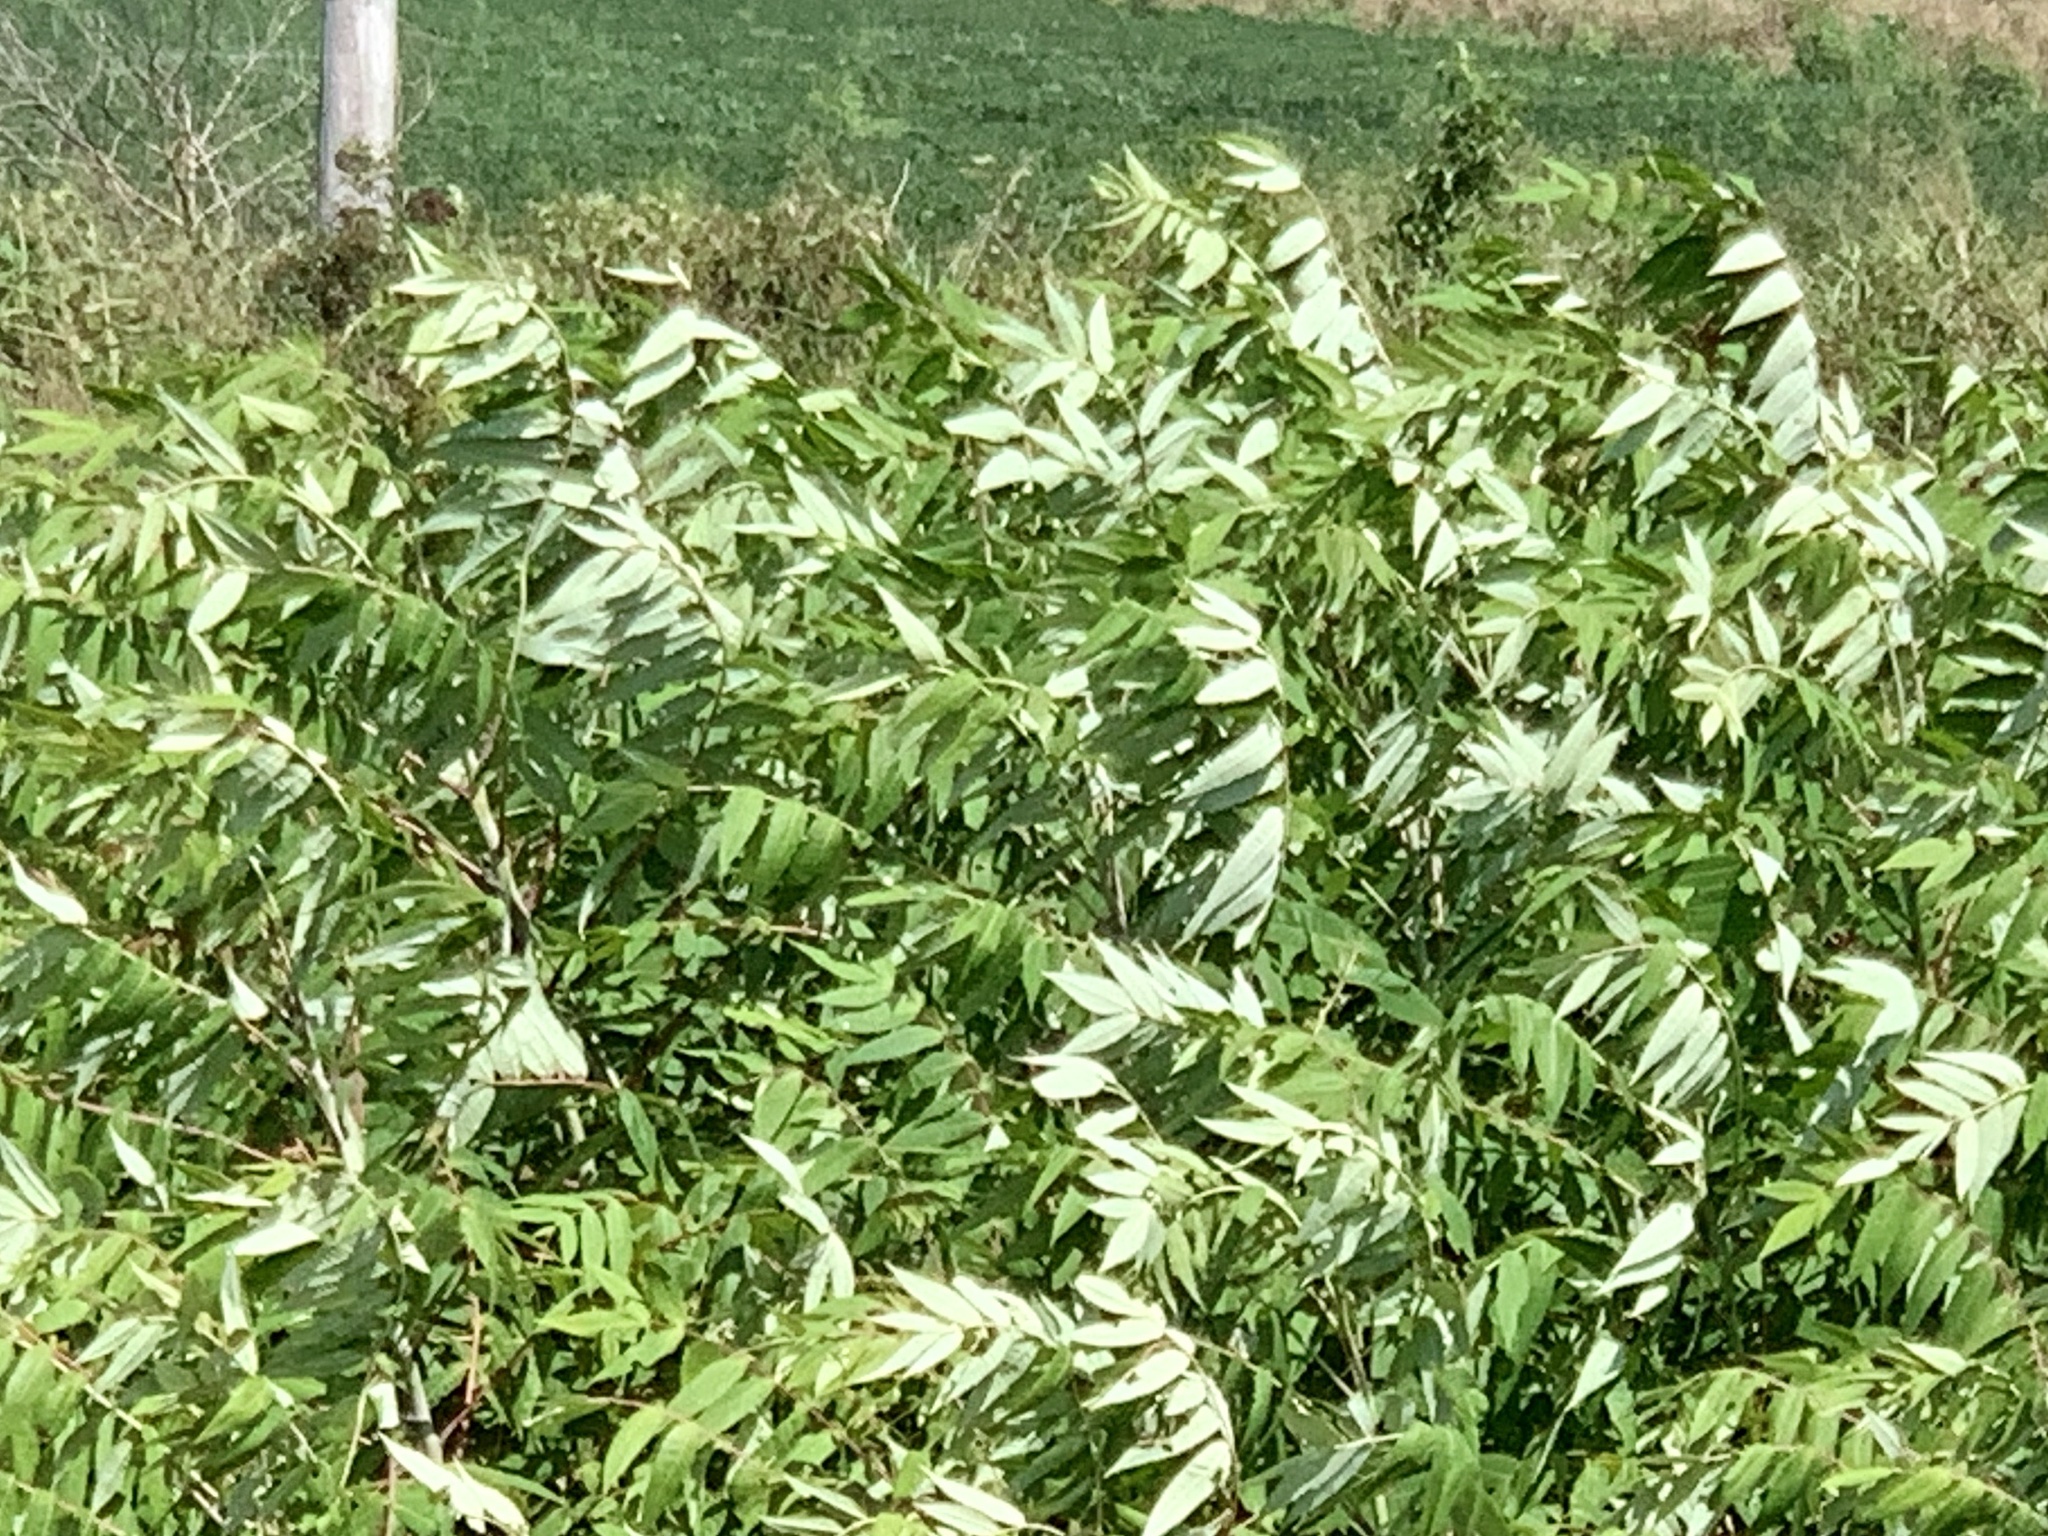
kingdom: Plantae
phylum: Tracheophyta
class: Magnoliopsida
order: Sapindales
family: Anacardiaceae
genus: Rhus
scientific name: Rhus glabra
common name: Scarlet sumac
